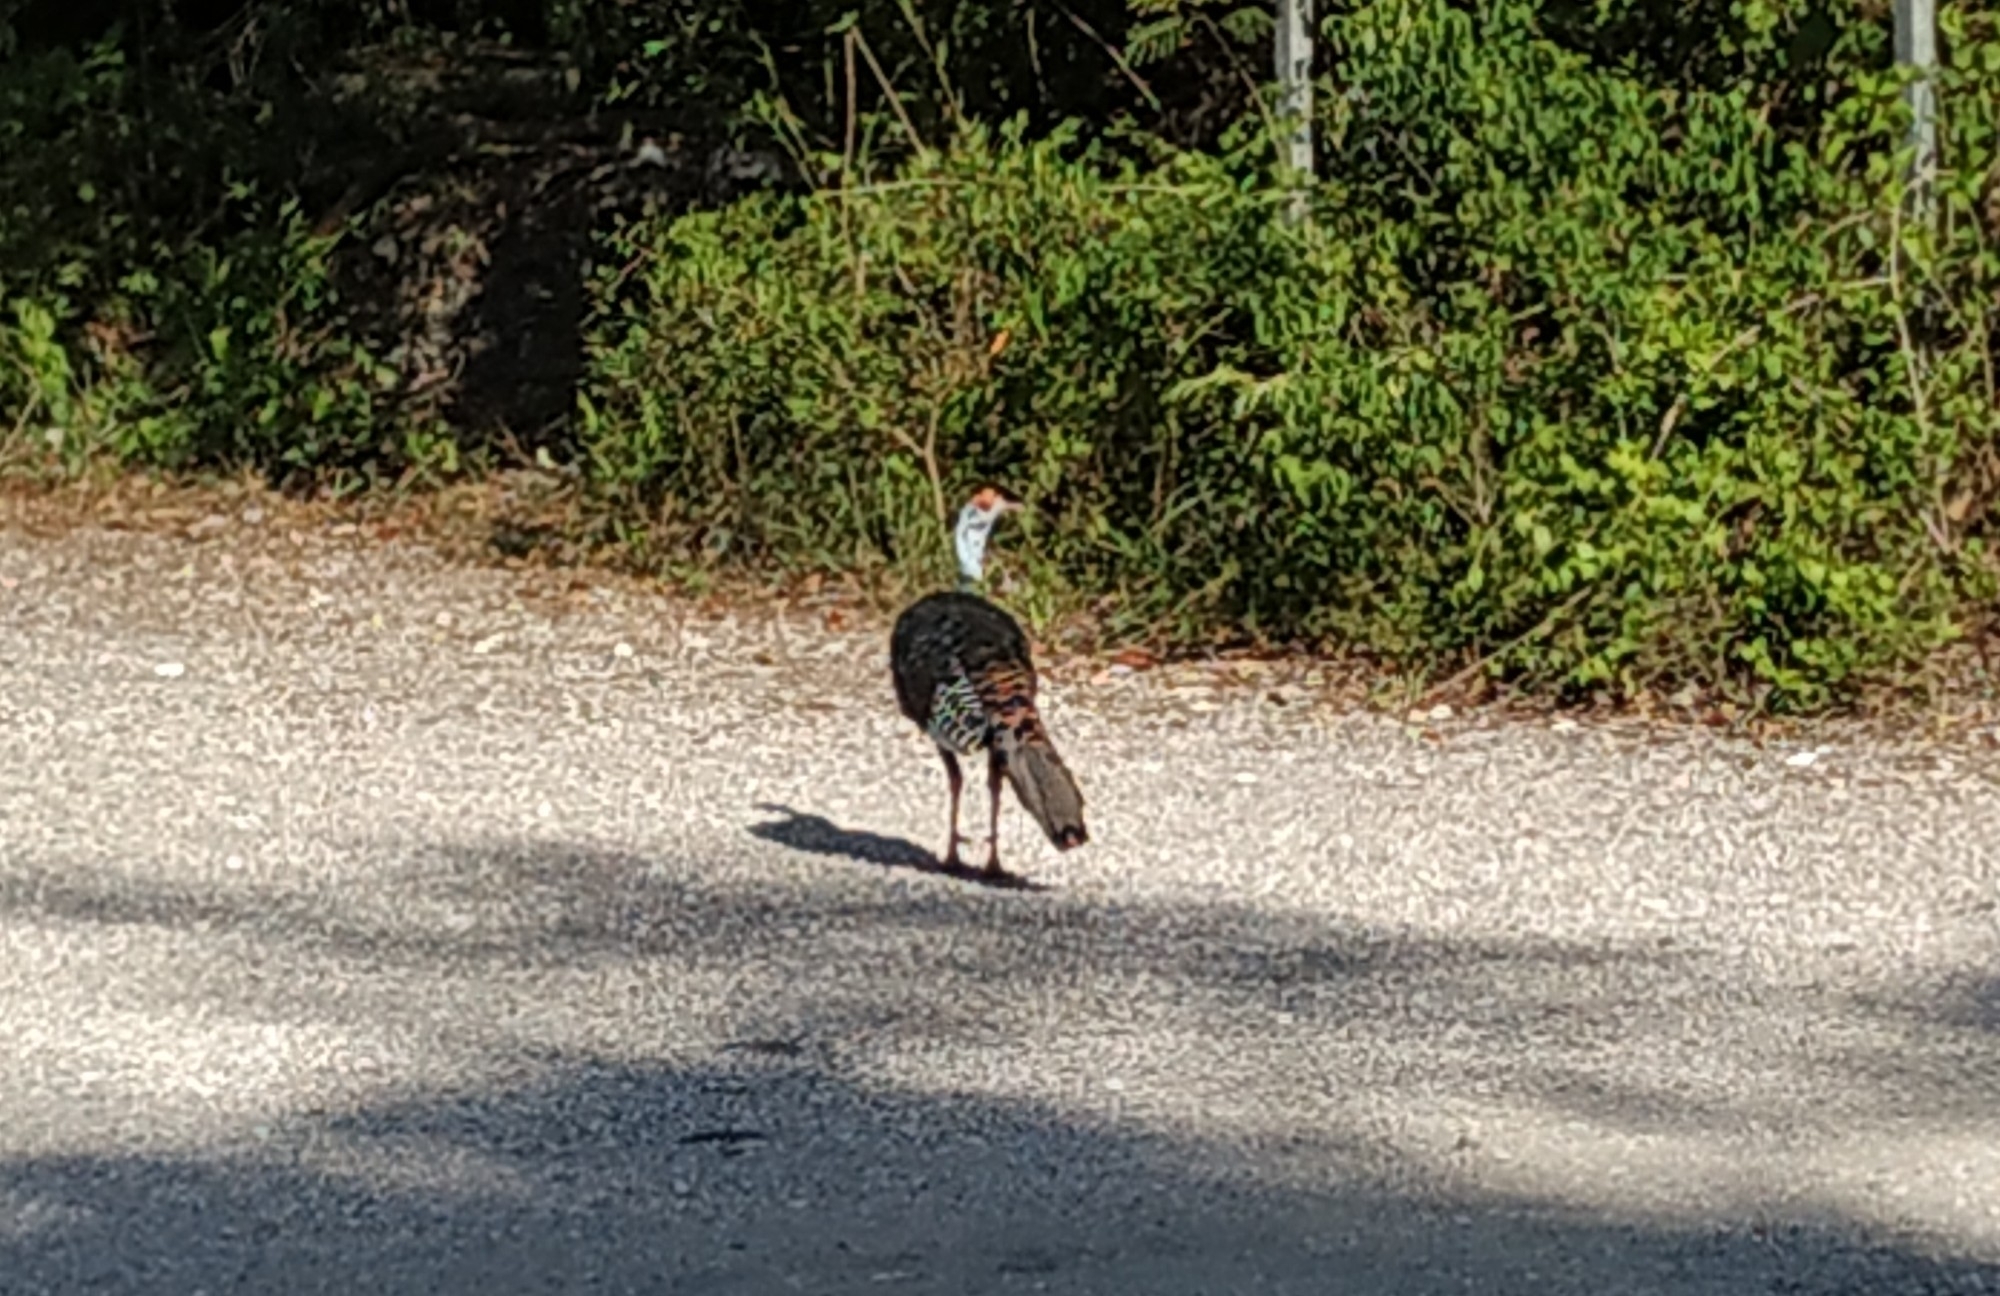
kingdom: Animalia
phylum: Chordata
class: Aves
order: Galliformes
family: Phasianidae
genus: Meleagris
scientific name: Meleagris ocellata
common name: Ocellated turkey
